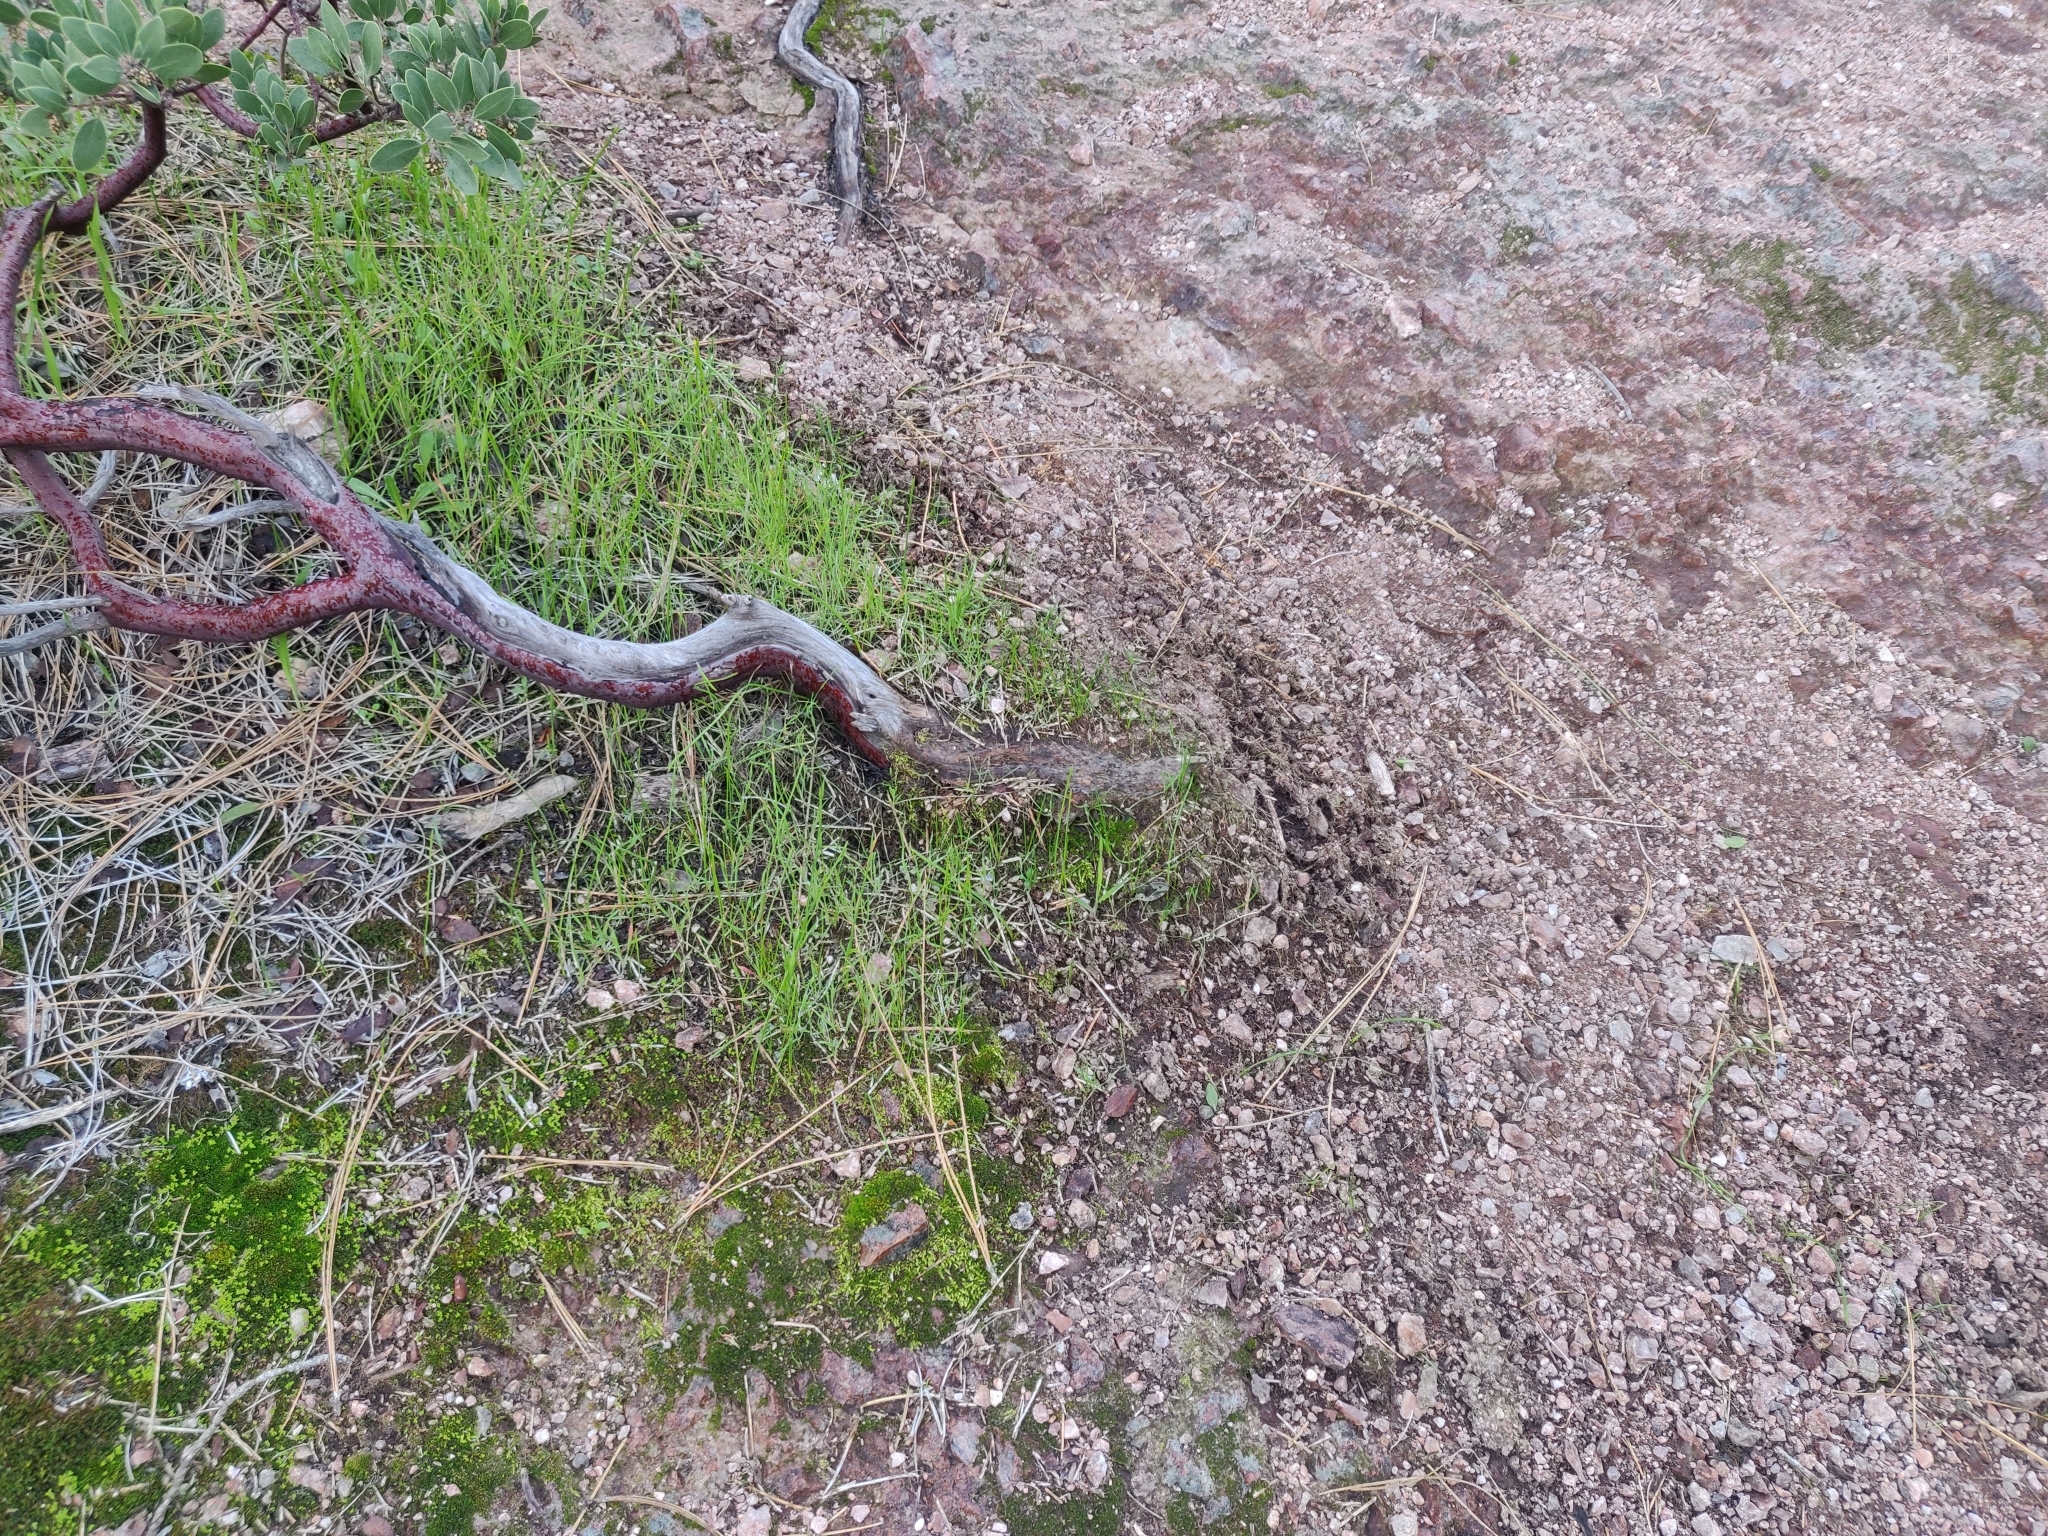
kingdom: Plantae
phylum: Tracheophyta
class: Magnoliopsida
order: Ericales
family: Ericaceae
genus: Arctostaphylos
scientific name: Arctostaphylos pungens
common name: Mexican manzanita
